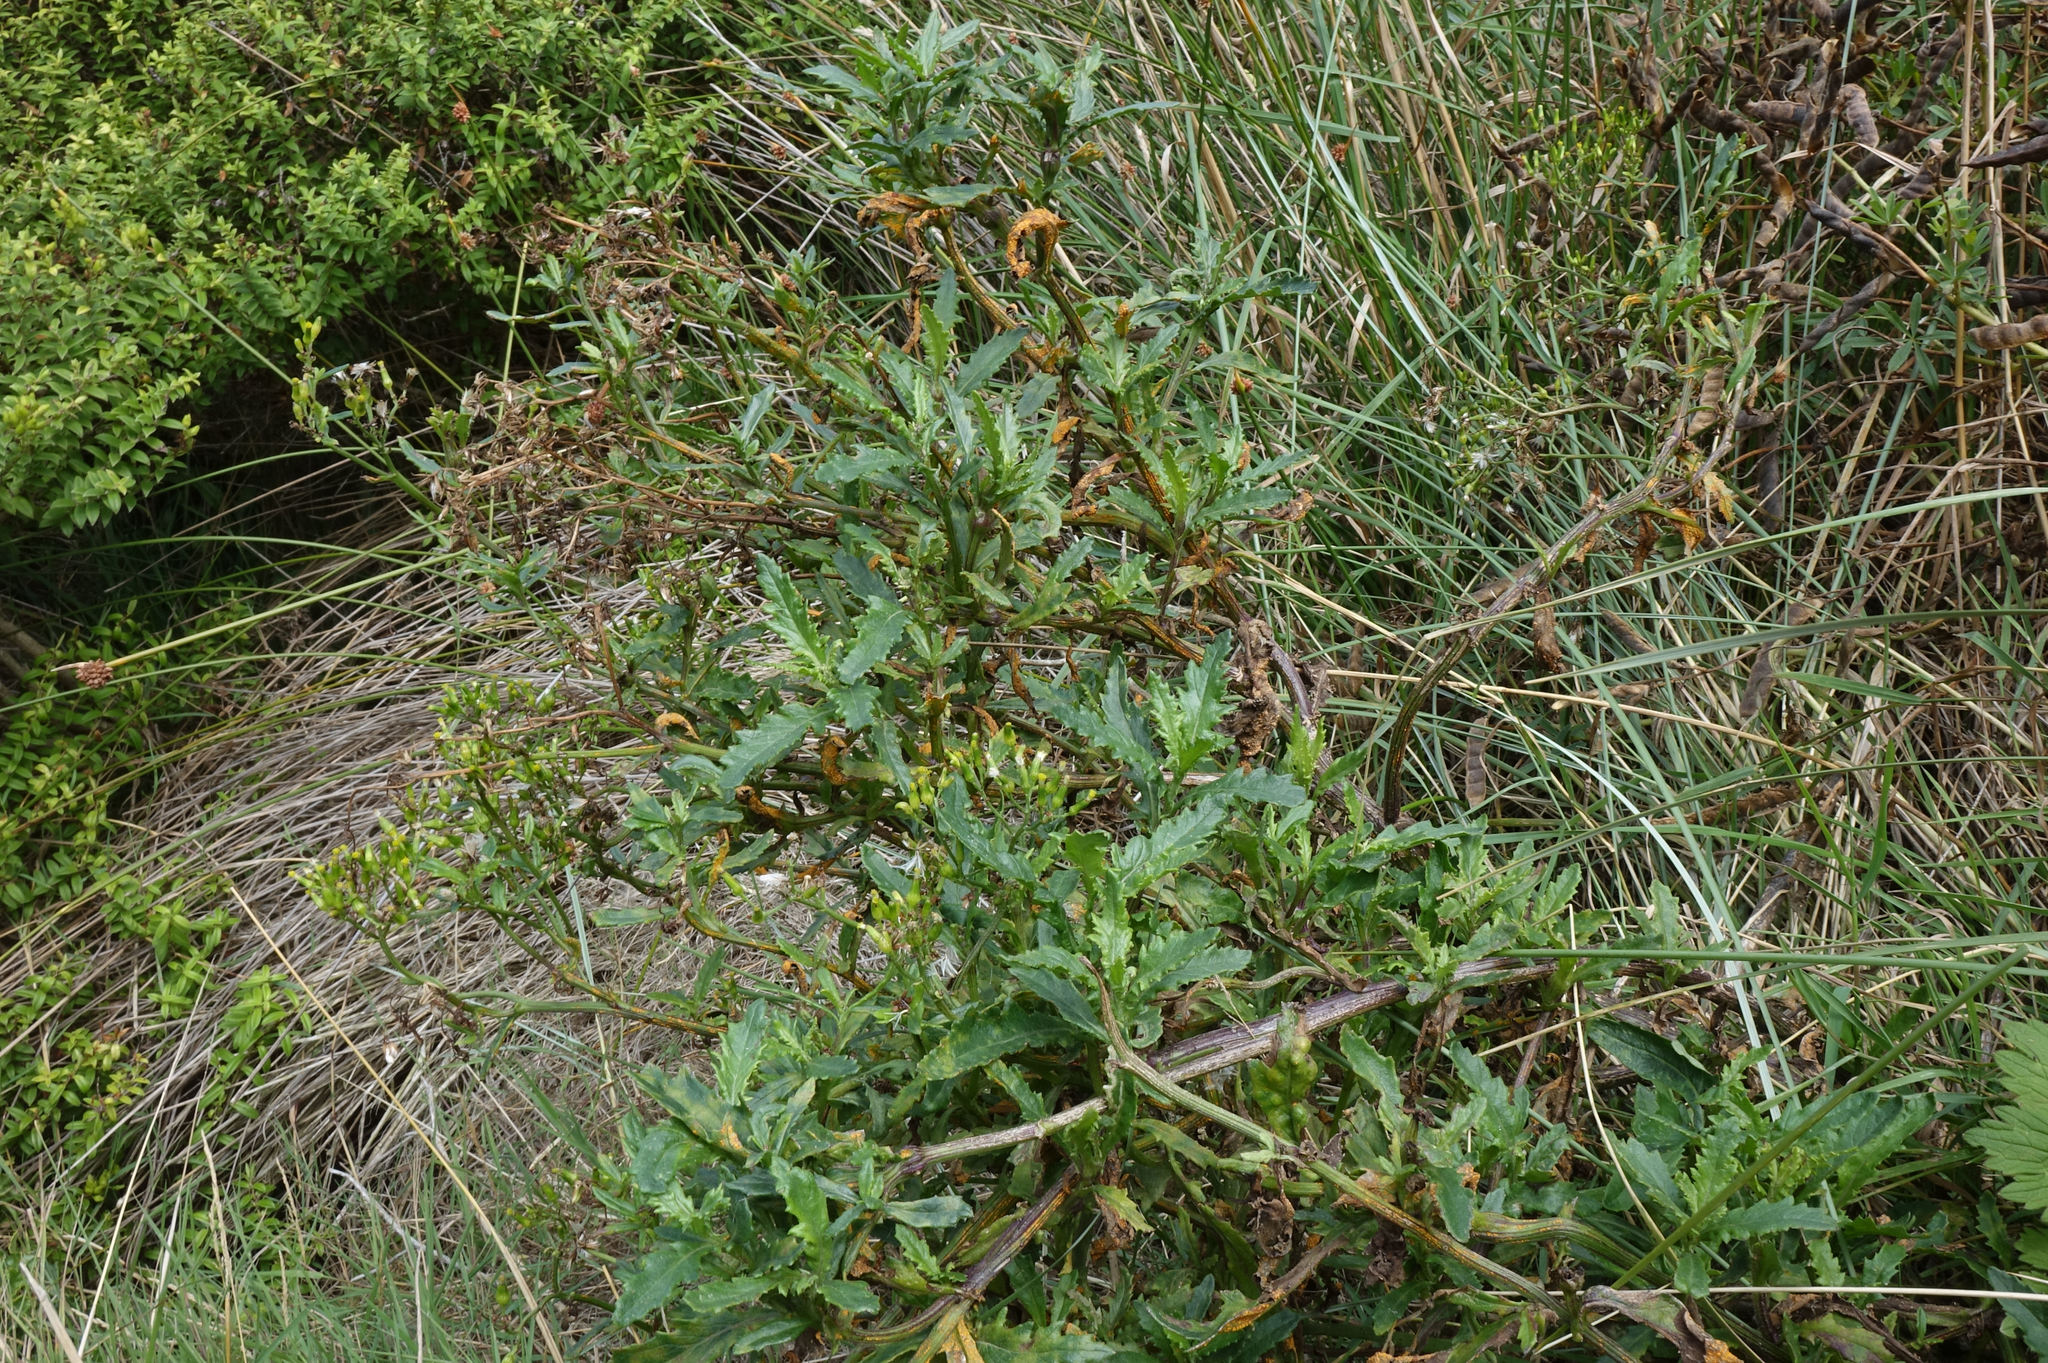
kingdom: Plantae
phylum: Tracheophyta
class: Magnoliopsida
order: Asterales
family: Asteraceae
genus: Senecio
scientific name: Senecio matatini
